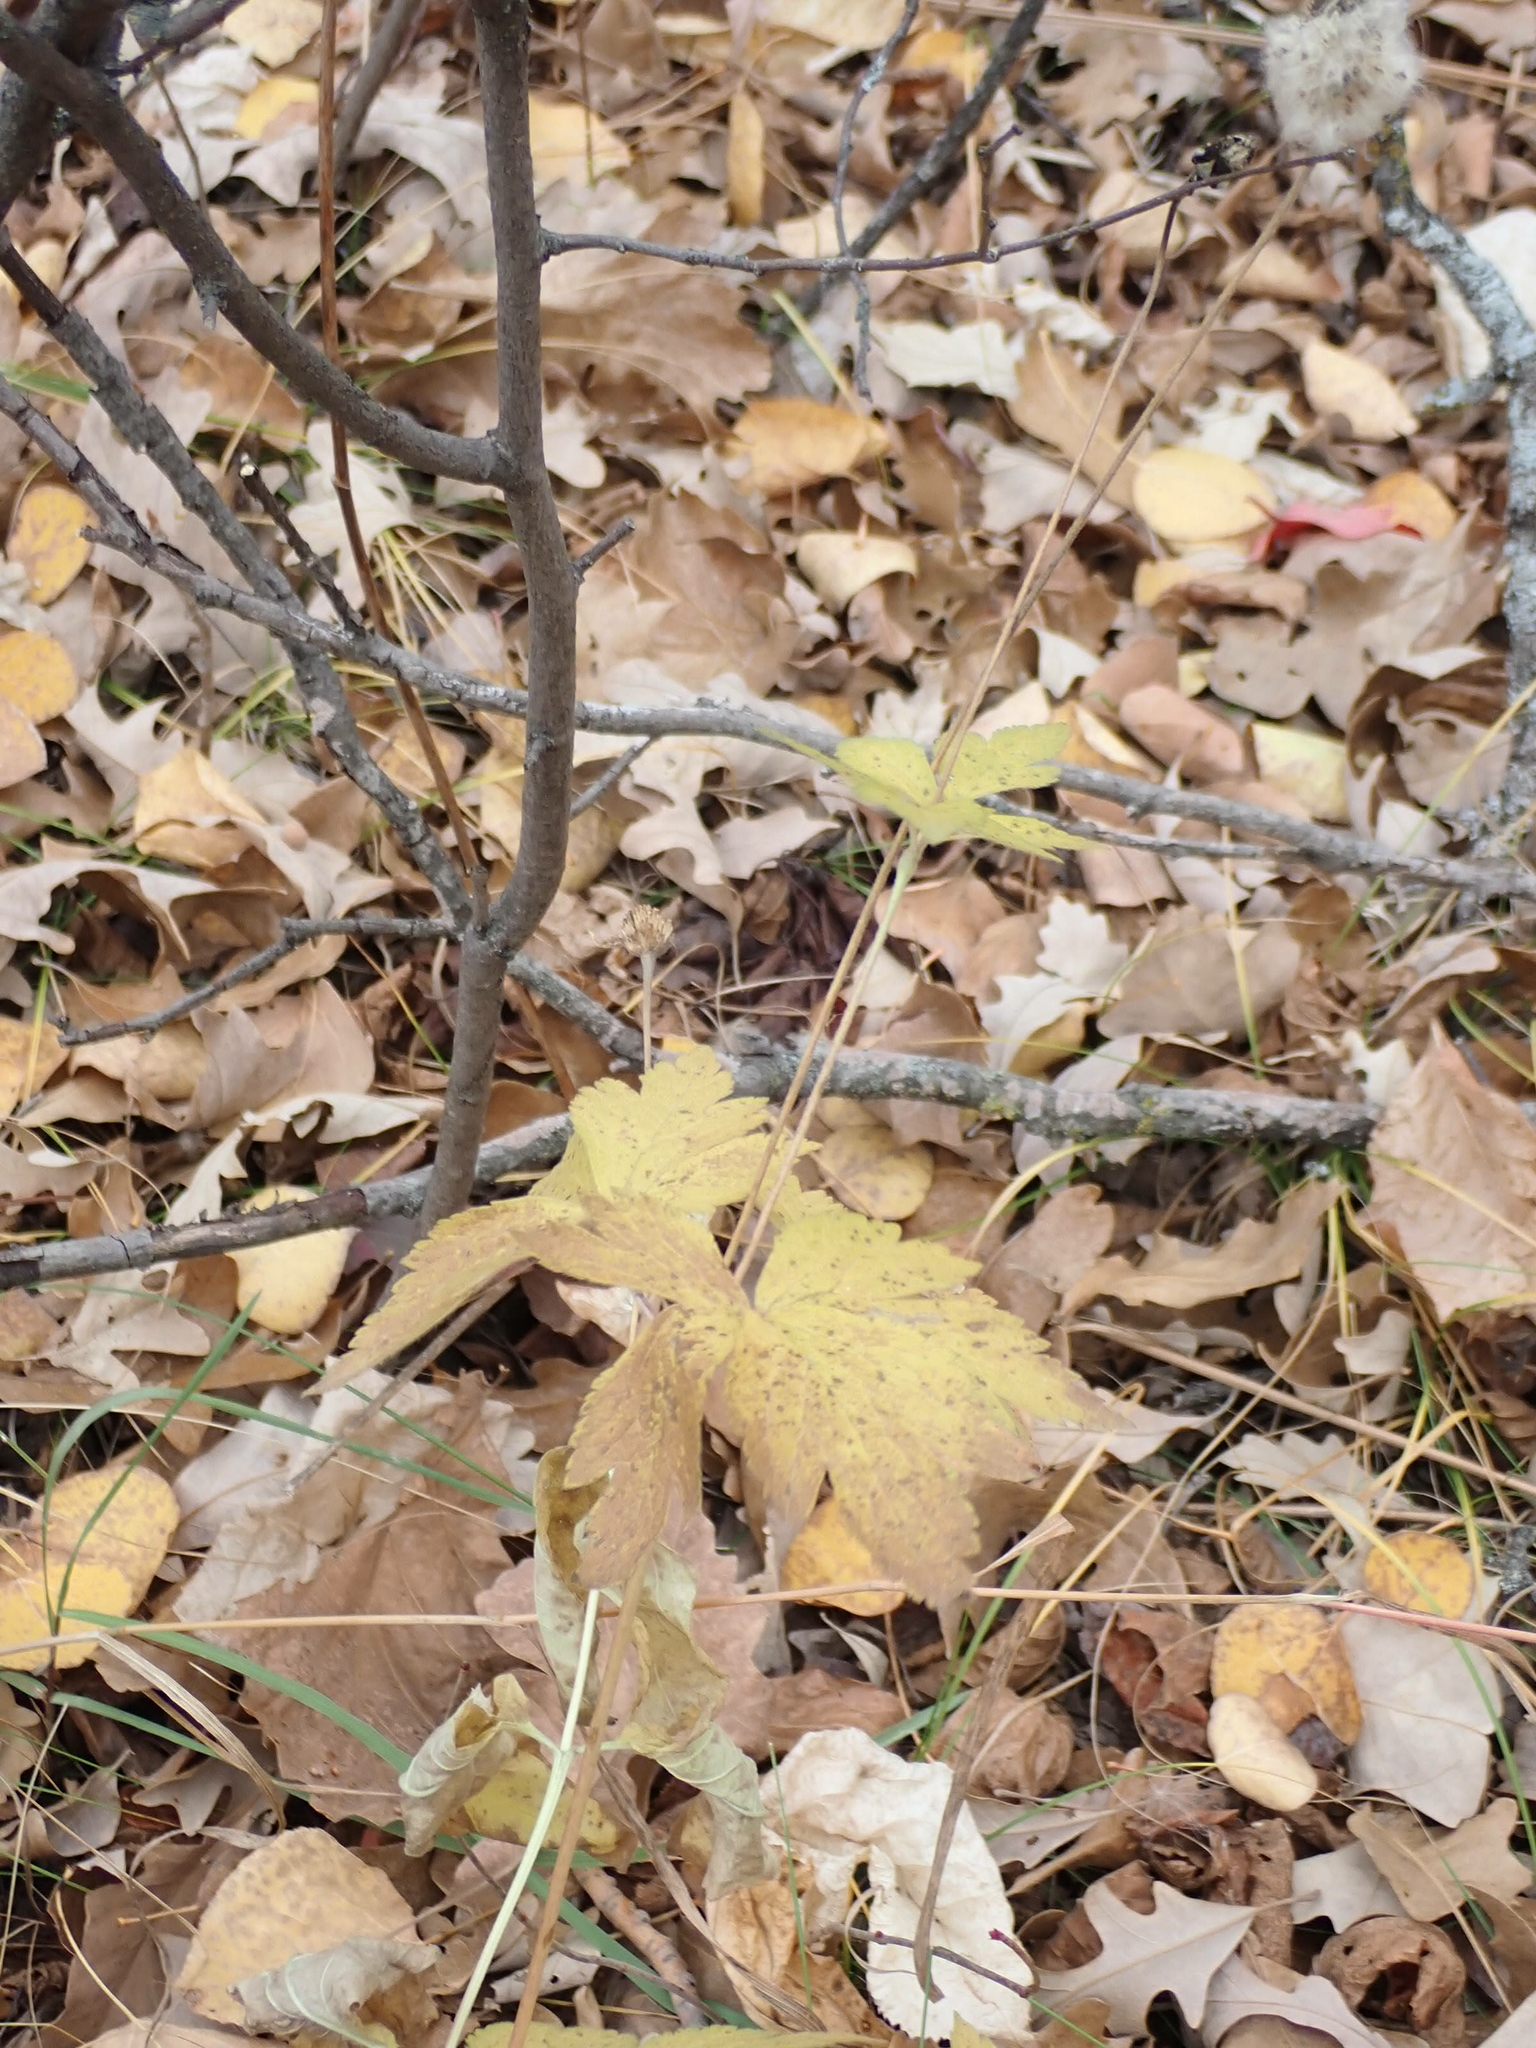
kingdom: Plantae
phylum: Tracheophyta
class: Magnoliopsida
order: Ranunculales
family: Ranunculaceae
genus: Anemone
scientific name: Anemone virginiana
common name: Tall anemone
